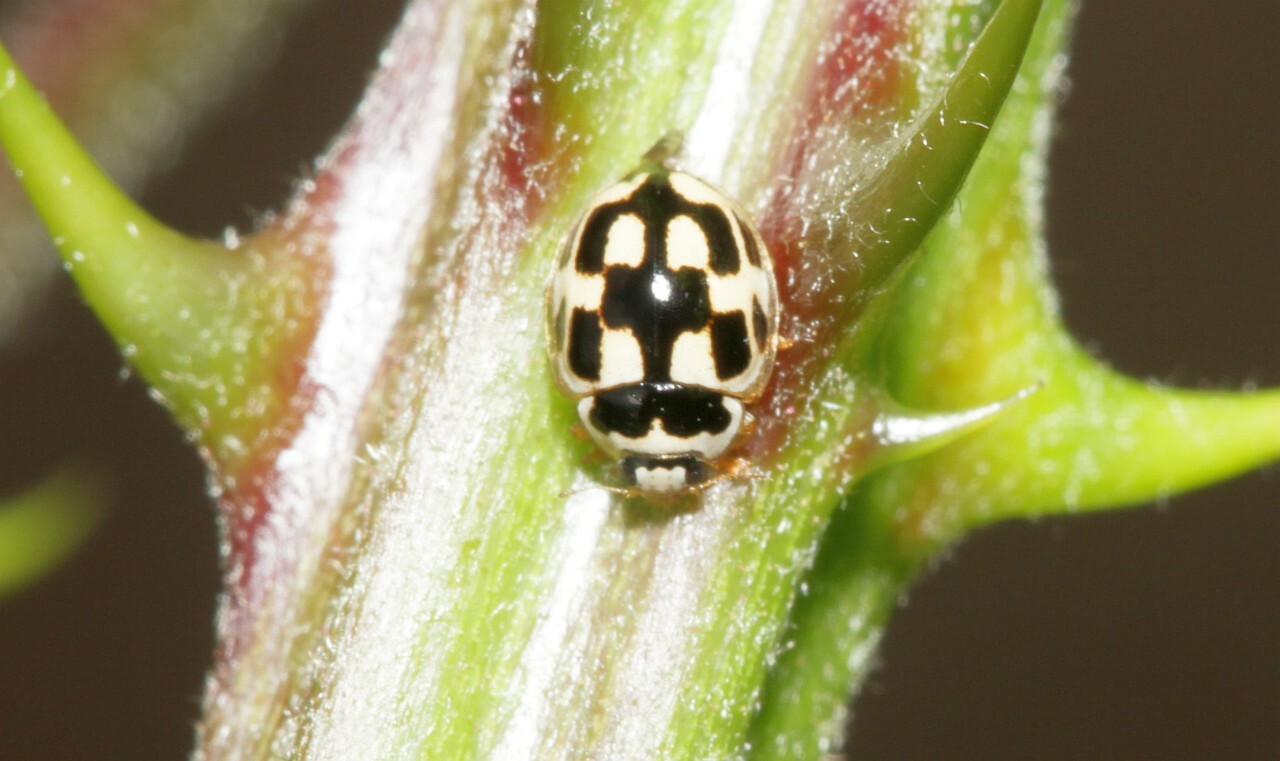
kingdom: Animalia
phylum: Arthropoda
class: Insecta
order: Coleoptera
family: Coccinellidae
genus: Propylaea
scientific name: Propylaea quatuordecimpunctata
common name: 14-spotted ladybird beetle
